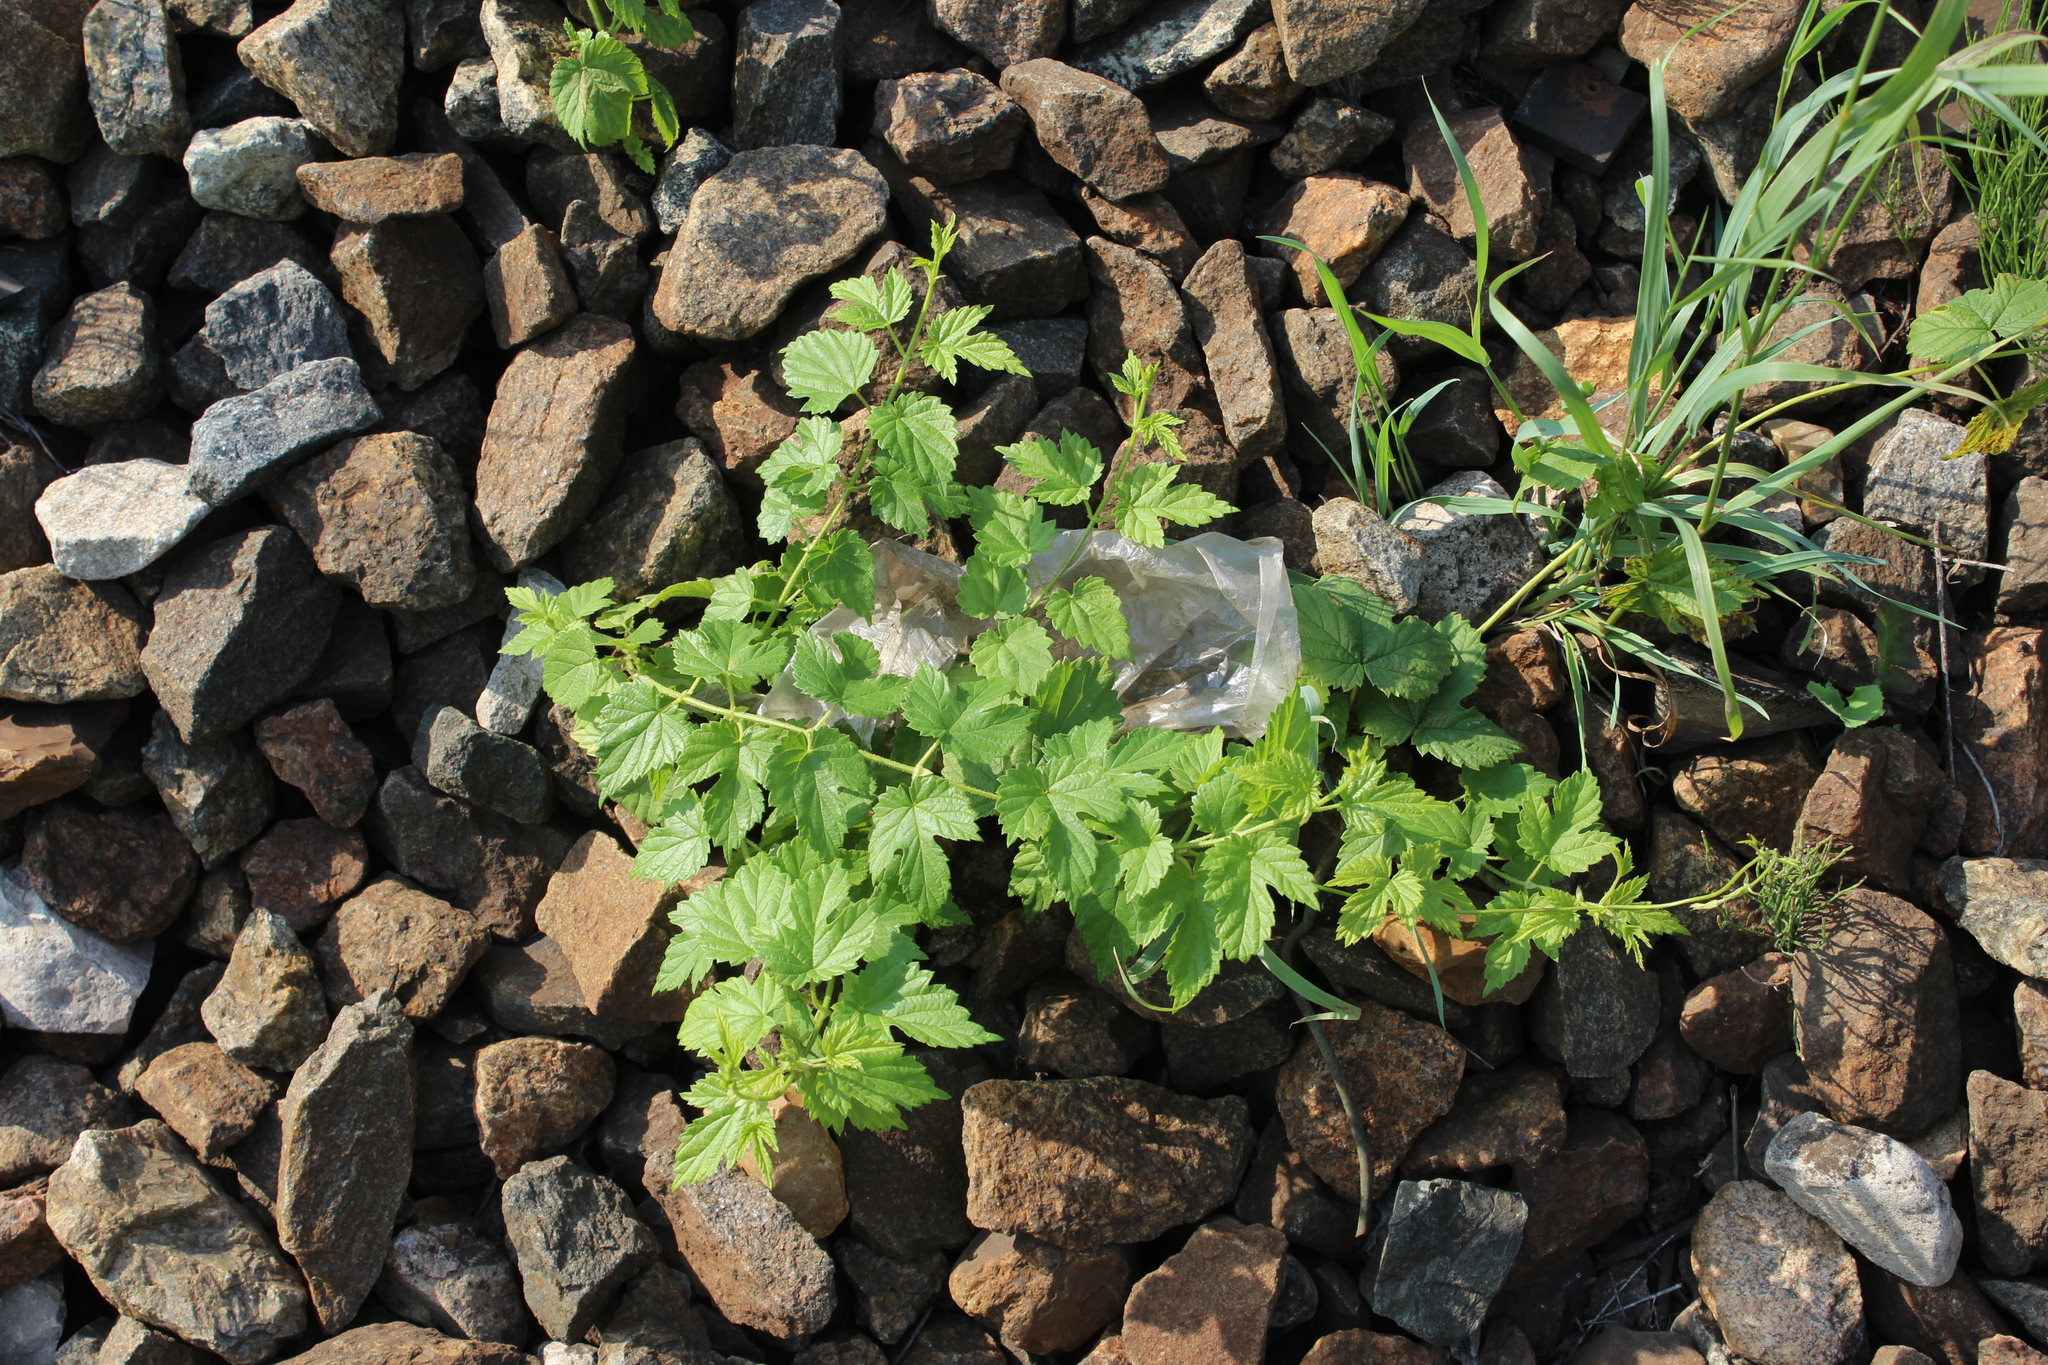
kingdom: Plantae
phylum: Tracheophyta
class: Magnoliopsida
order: Rosales
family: Cannabaceae
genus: Humulus
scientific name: Humulus lupulus
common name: Hop
